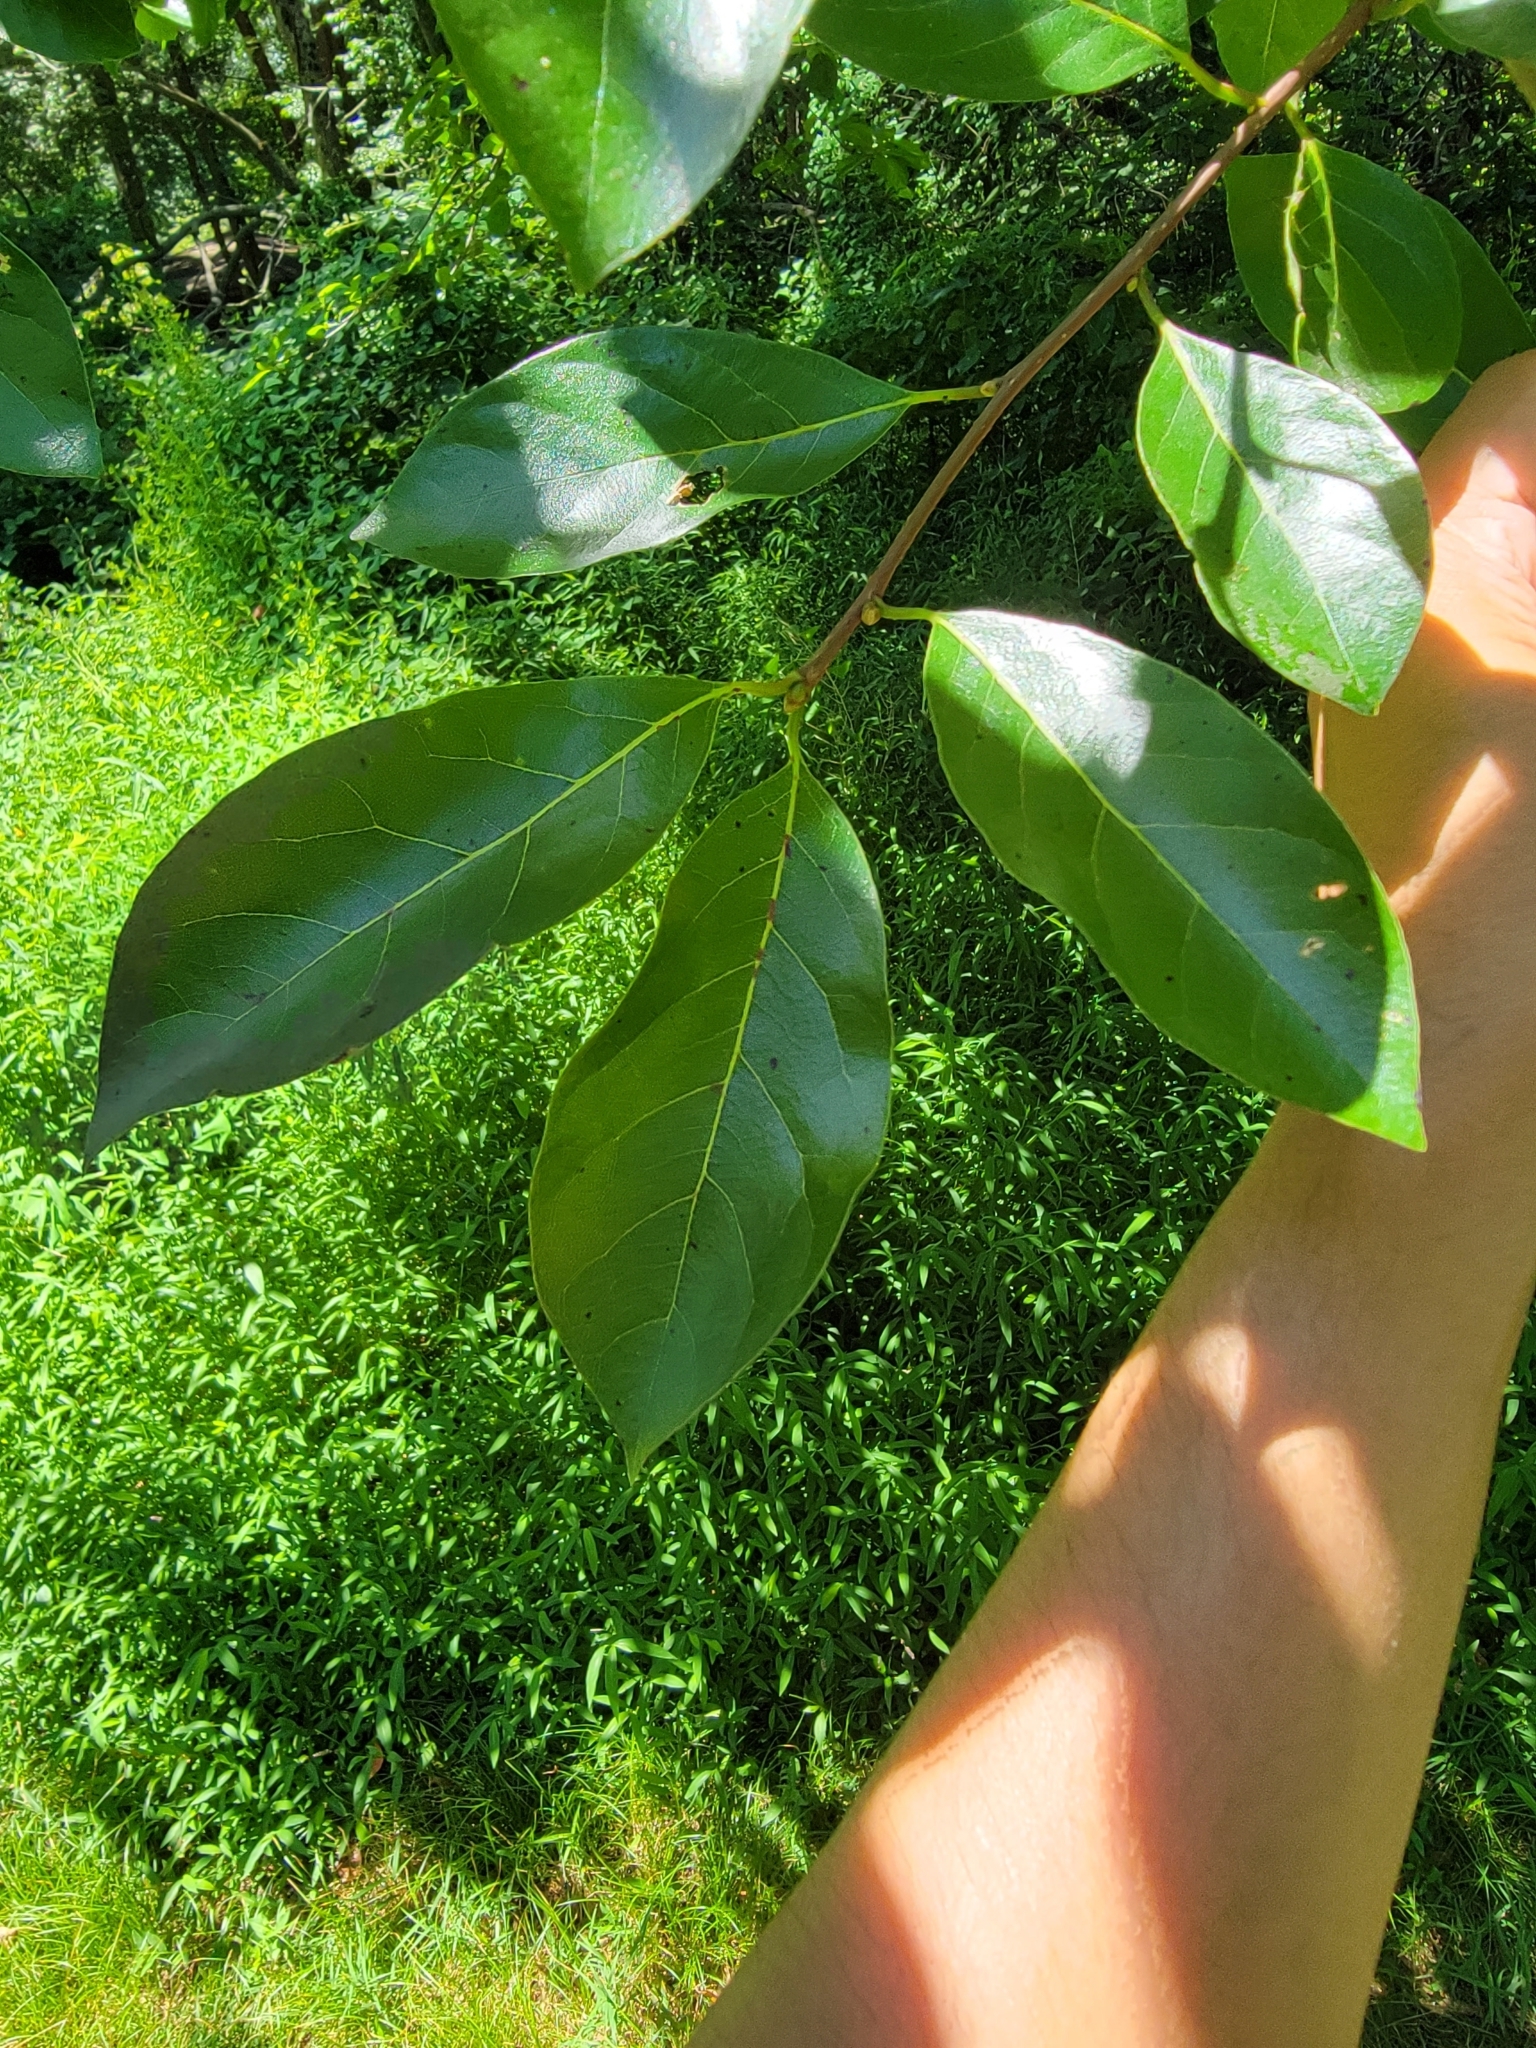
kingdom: Plantae
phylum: Tracheophyta
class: Magnoliopsida
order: Cornales
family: Nyssaceae
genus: Nyssa
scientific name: Nyssa sylvatica
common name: Black tupelo
